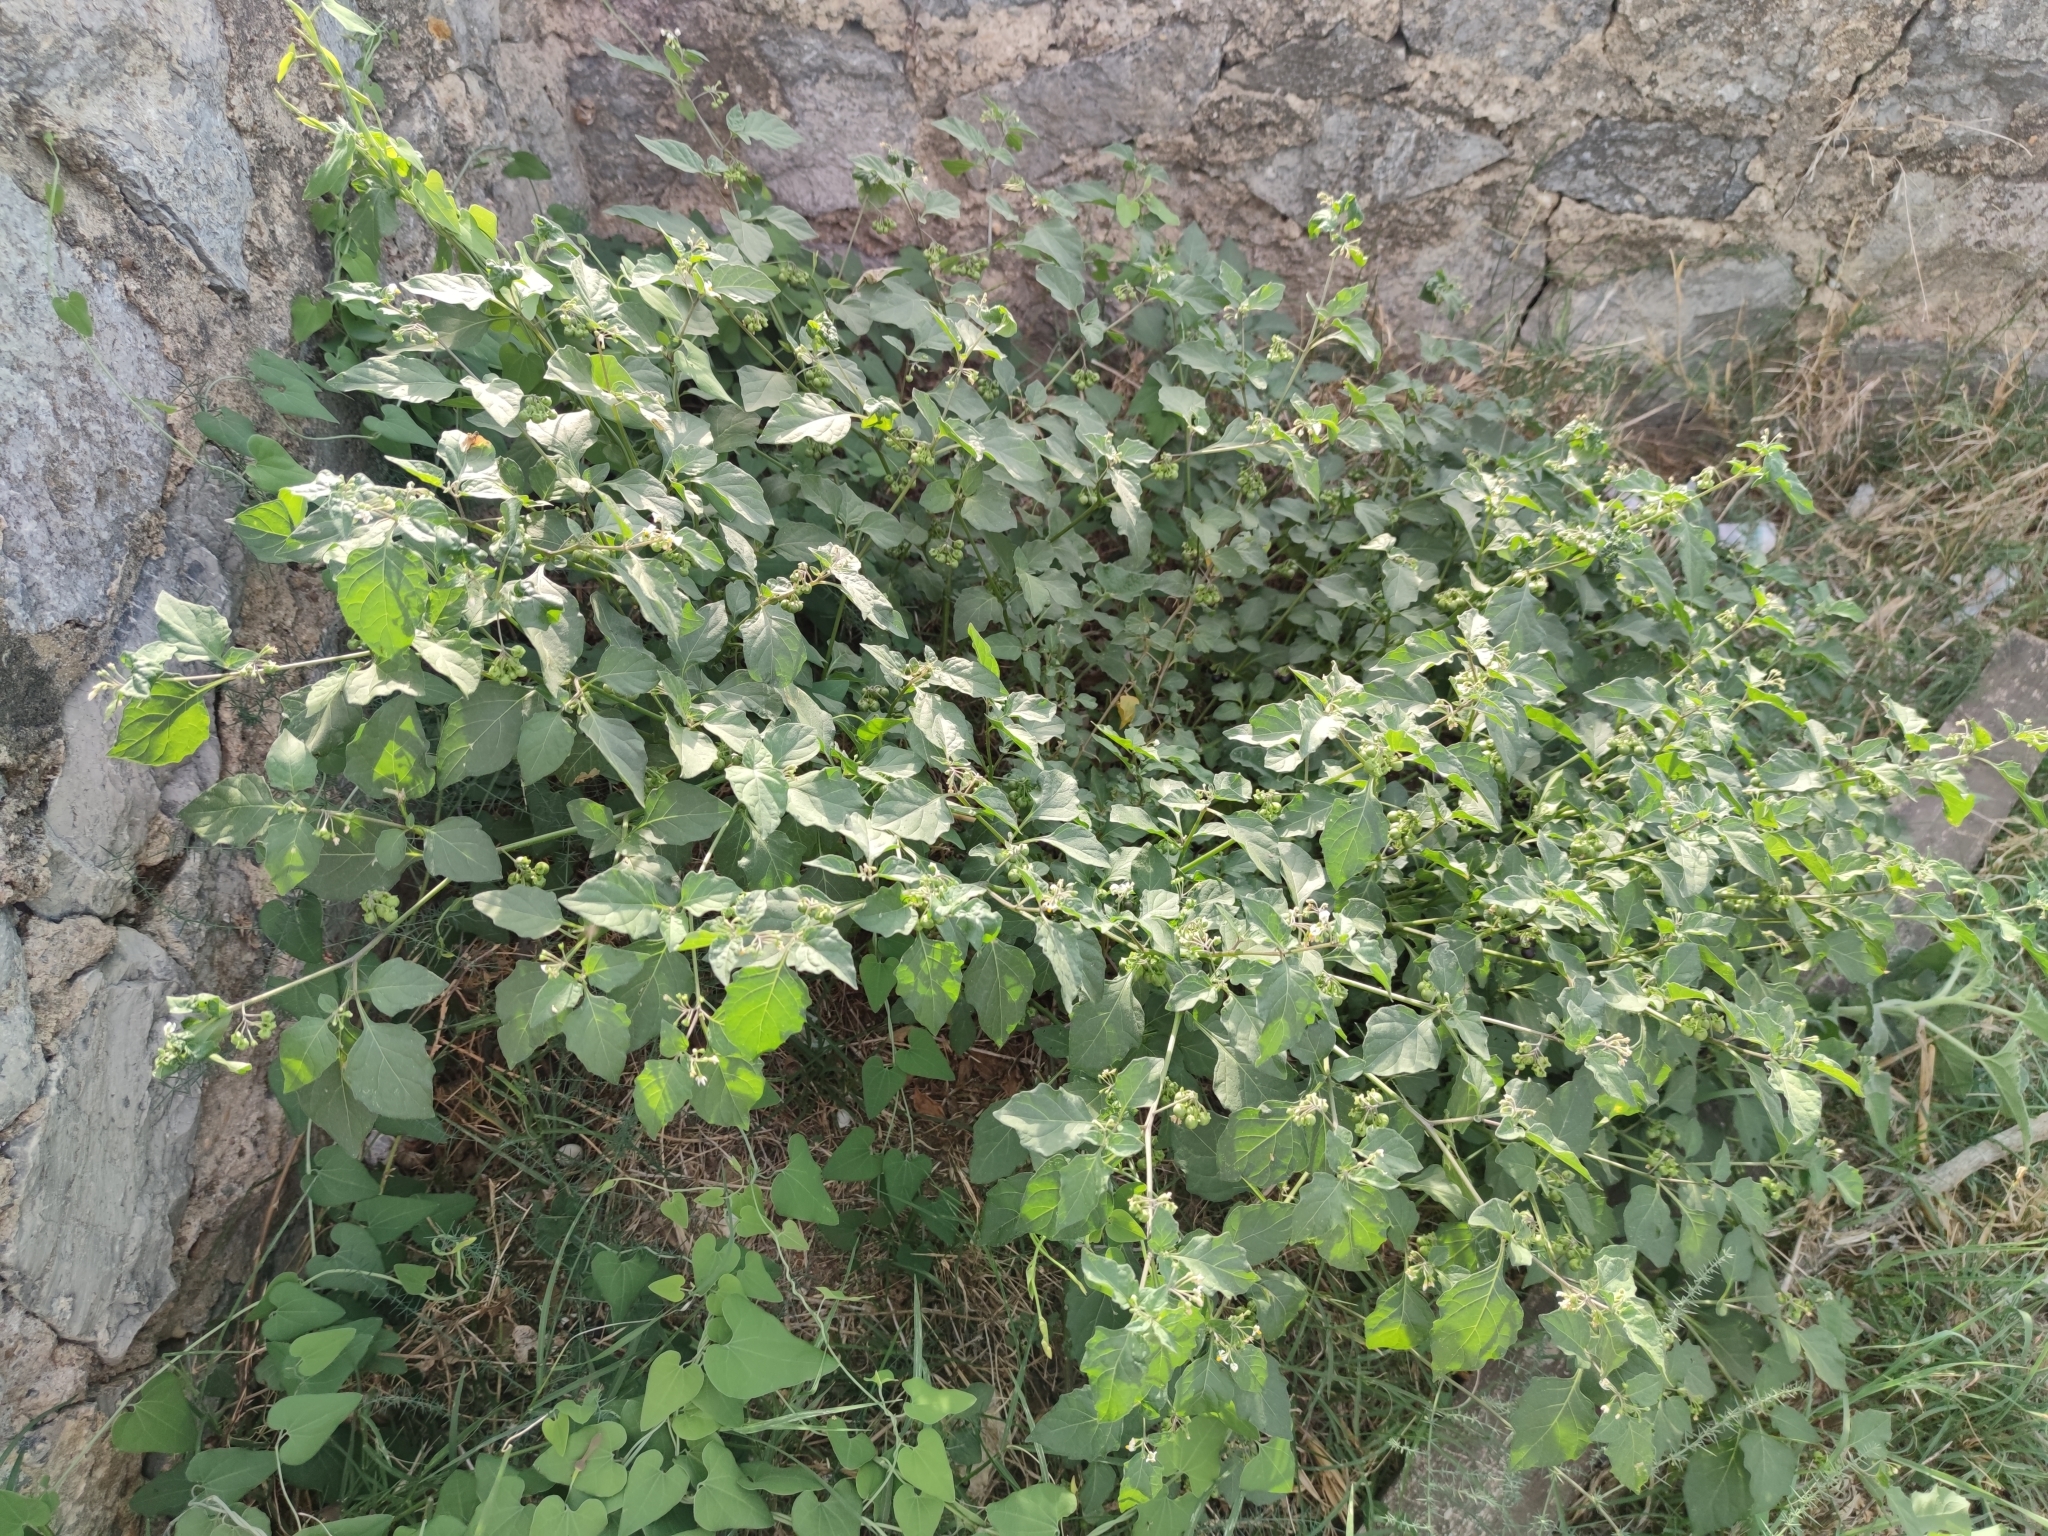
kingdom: Plantae
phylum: Tracheophyta
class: Magnoliopsida
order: Solanales
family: Solanaceae
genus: Solanum
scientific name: Solanum nigrum
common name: Black nightshade
